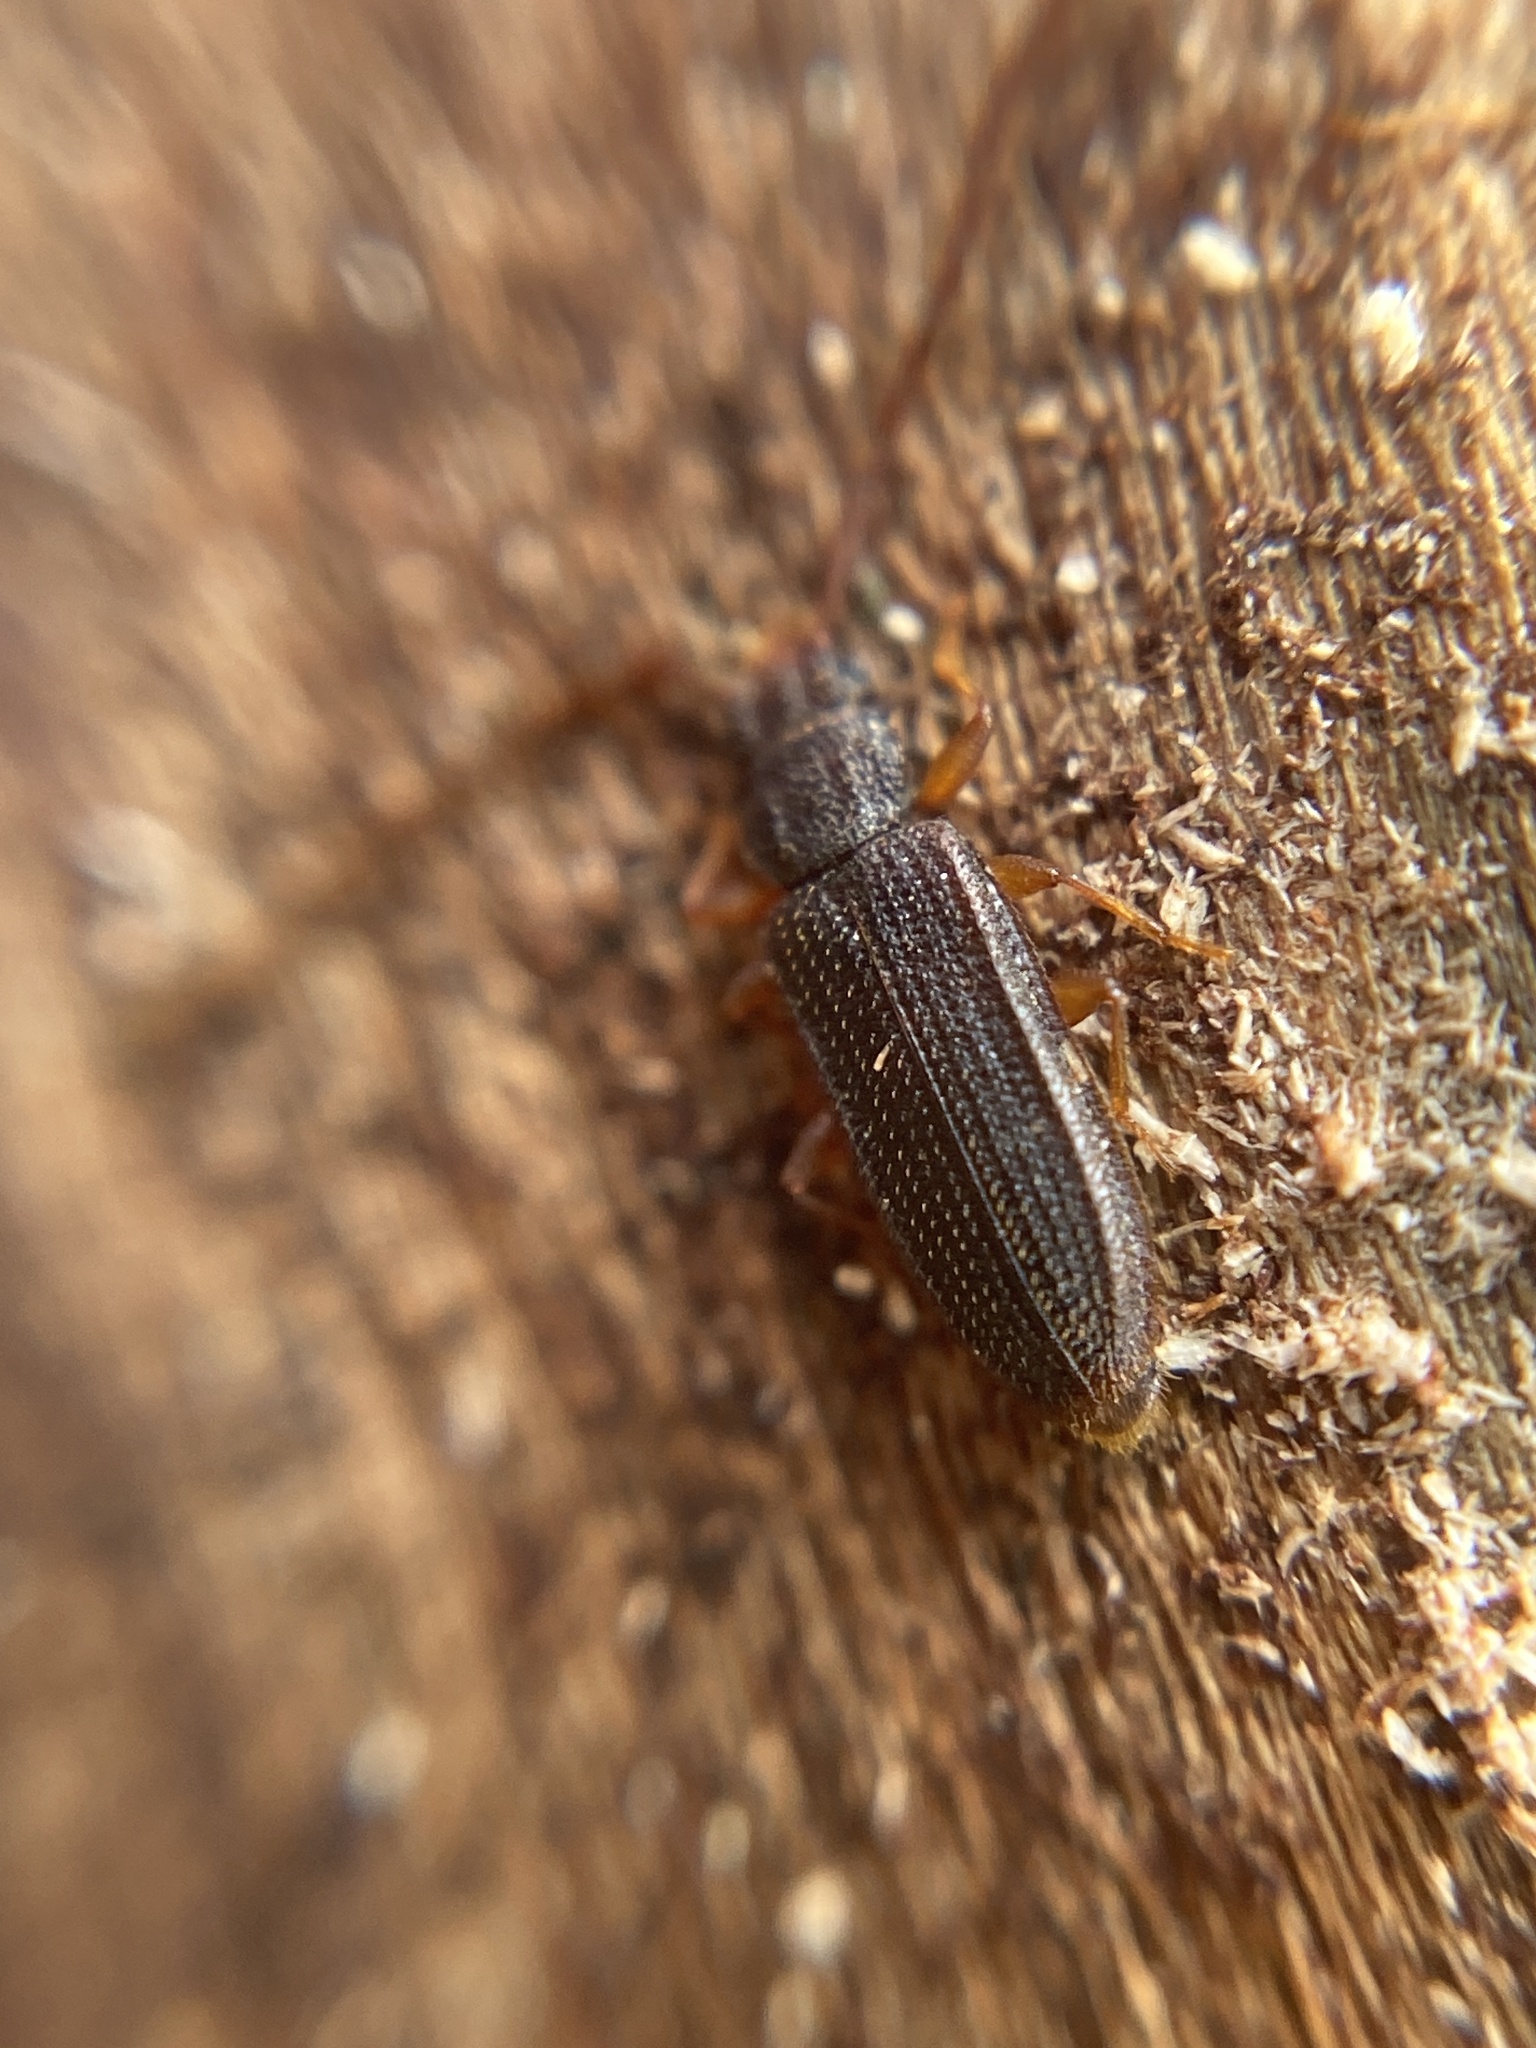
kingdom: Animalia
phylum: Arthropoda
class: Insecta
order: Coleoptera
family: Silvanidae
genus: Uleiota
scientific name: Uleiota planatus
